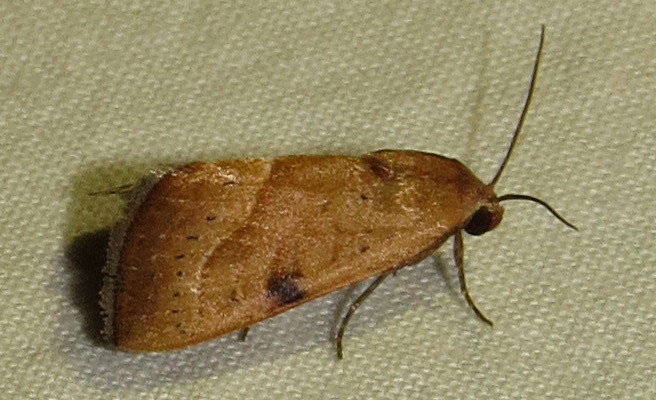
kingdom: Animalia
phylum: Arthropoda
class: Insecta
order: Lepidoptera
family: Noctuidae
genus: Galgula
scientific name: Galgula partita
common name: Wedgeling
